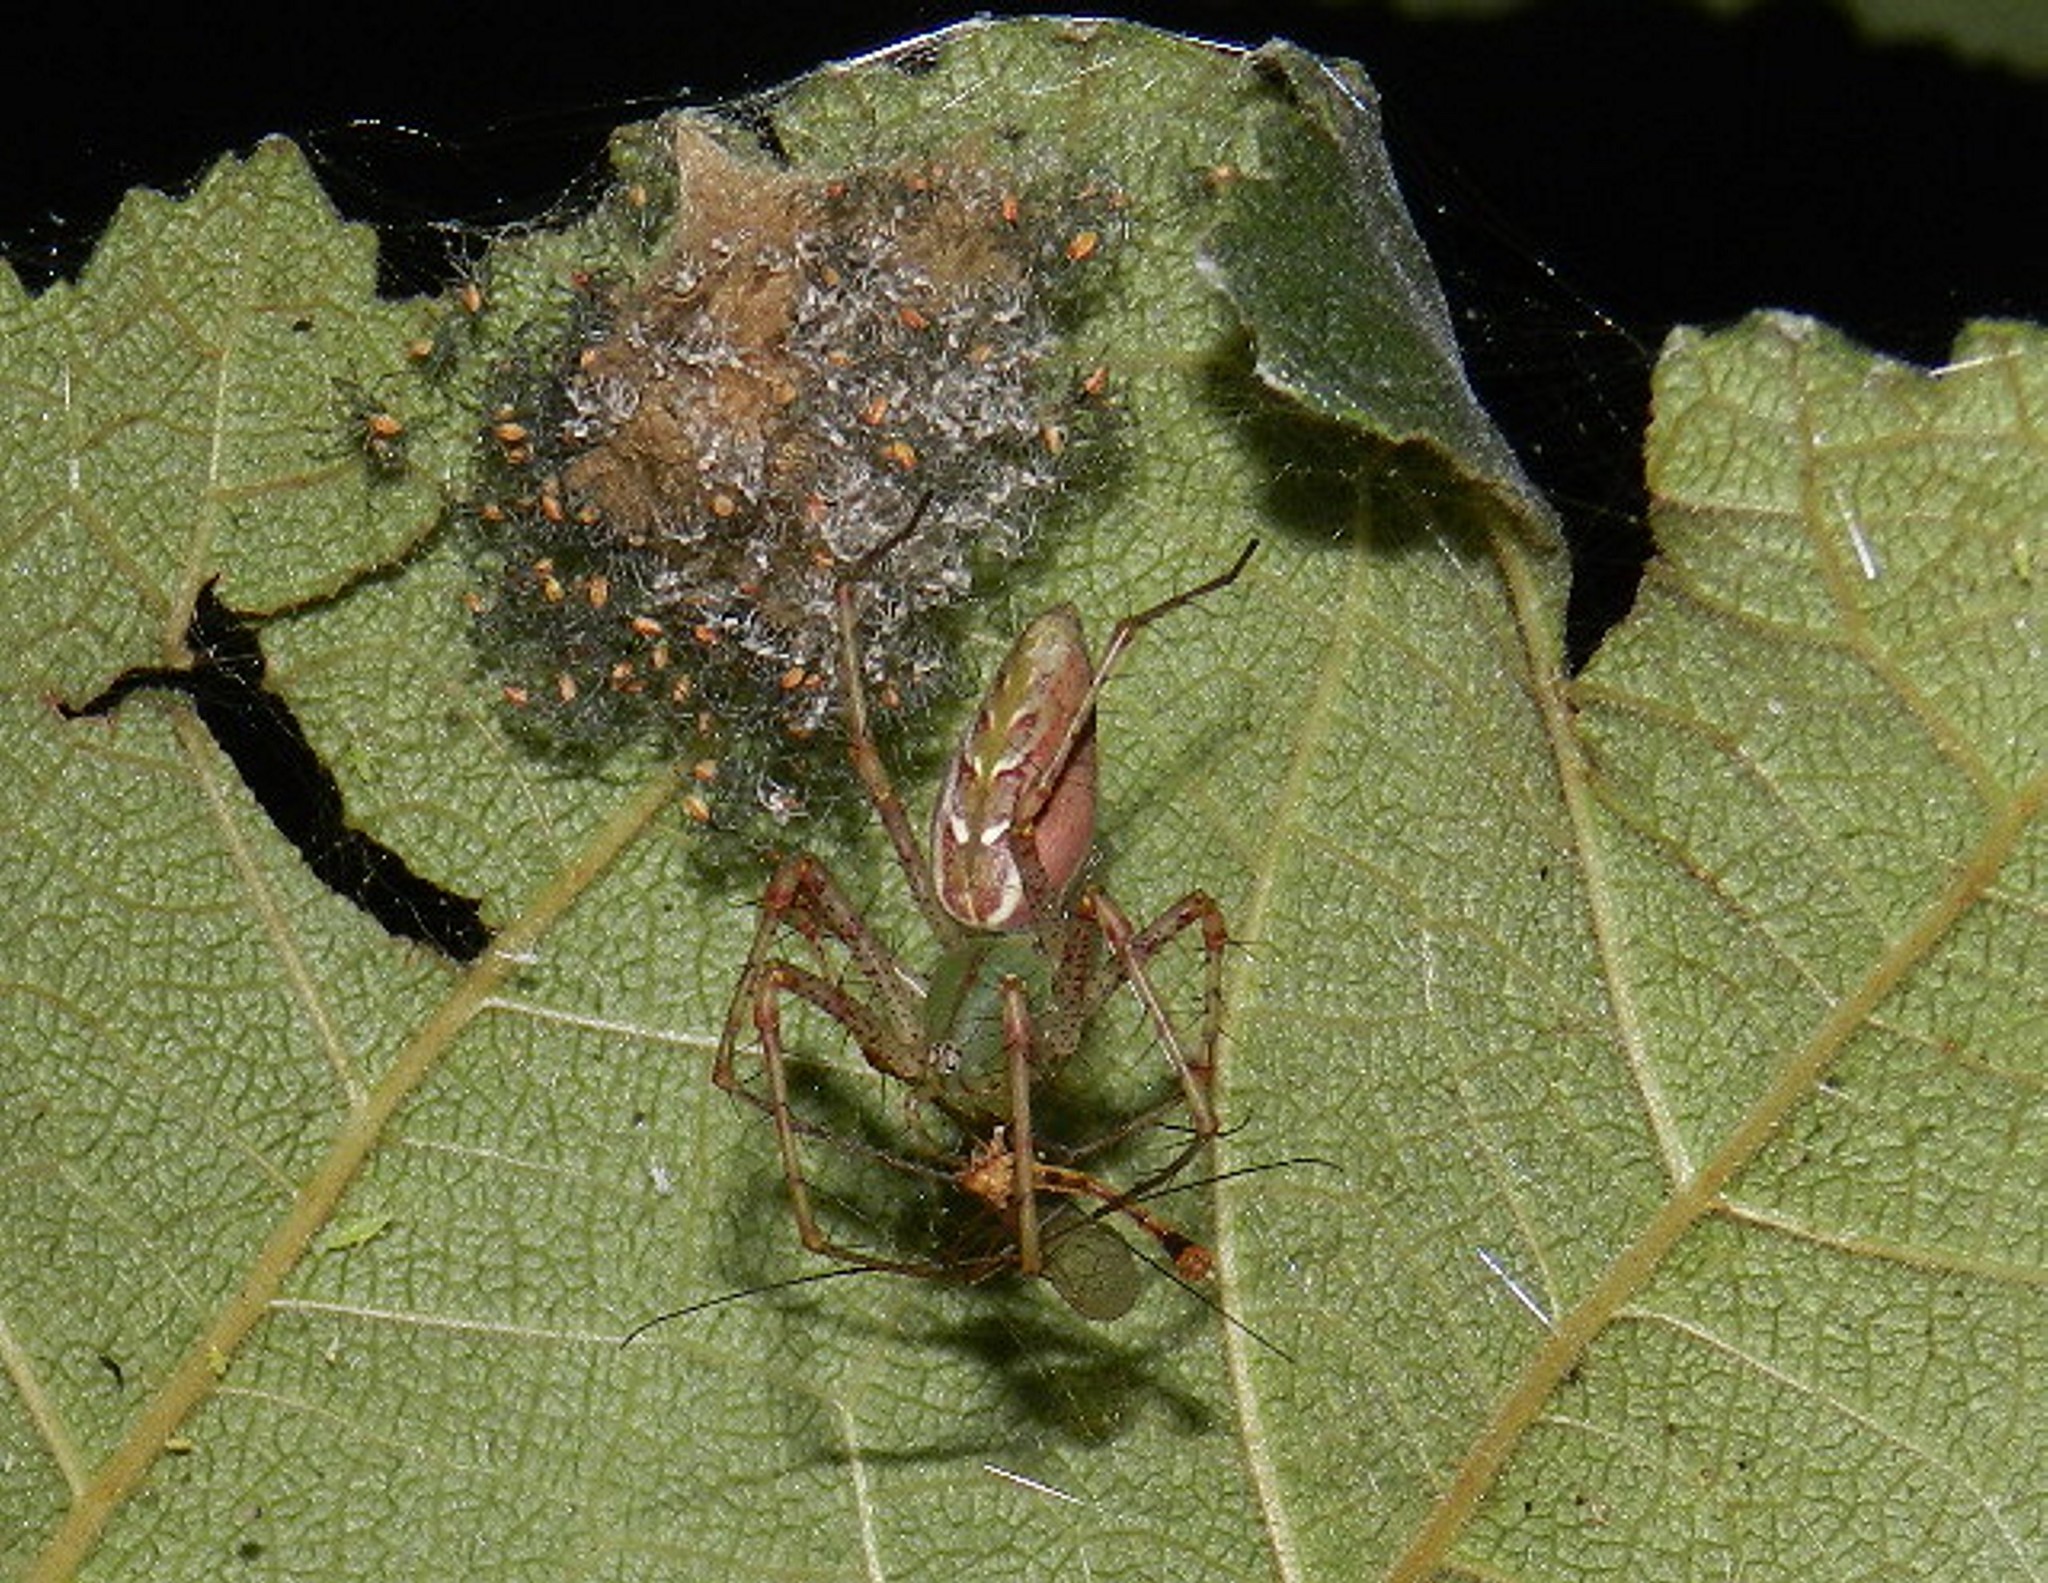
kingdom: Animalia
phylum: Arthropoda
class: Arachnida
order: Araneae
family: Oxyopidae
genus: Peucetia
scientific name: Peucetia viridans
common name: Lynx spiders
